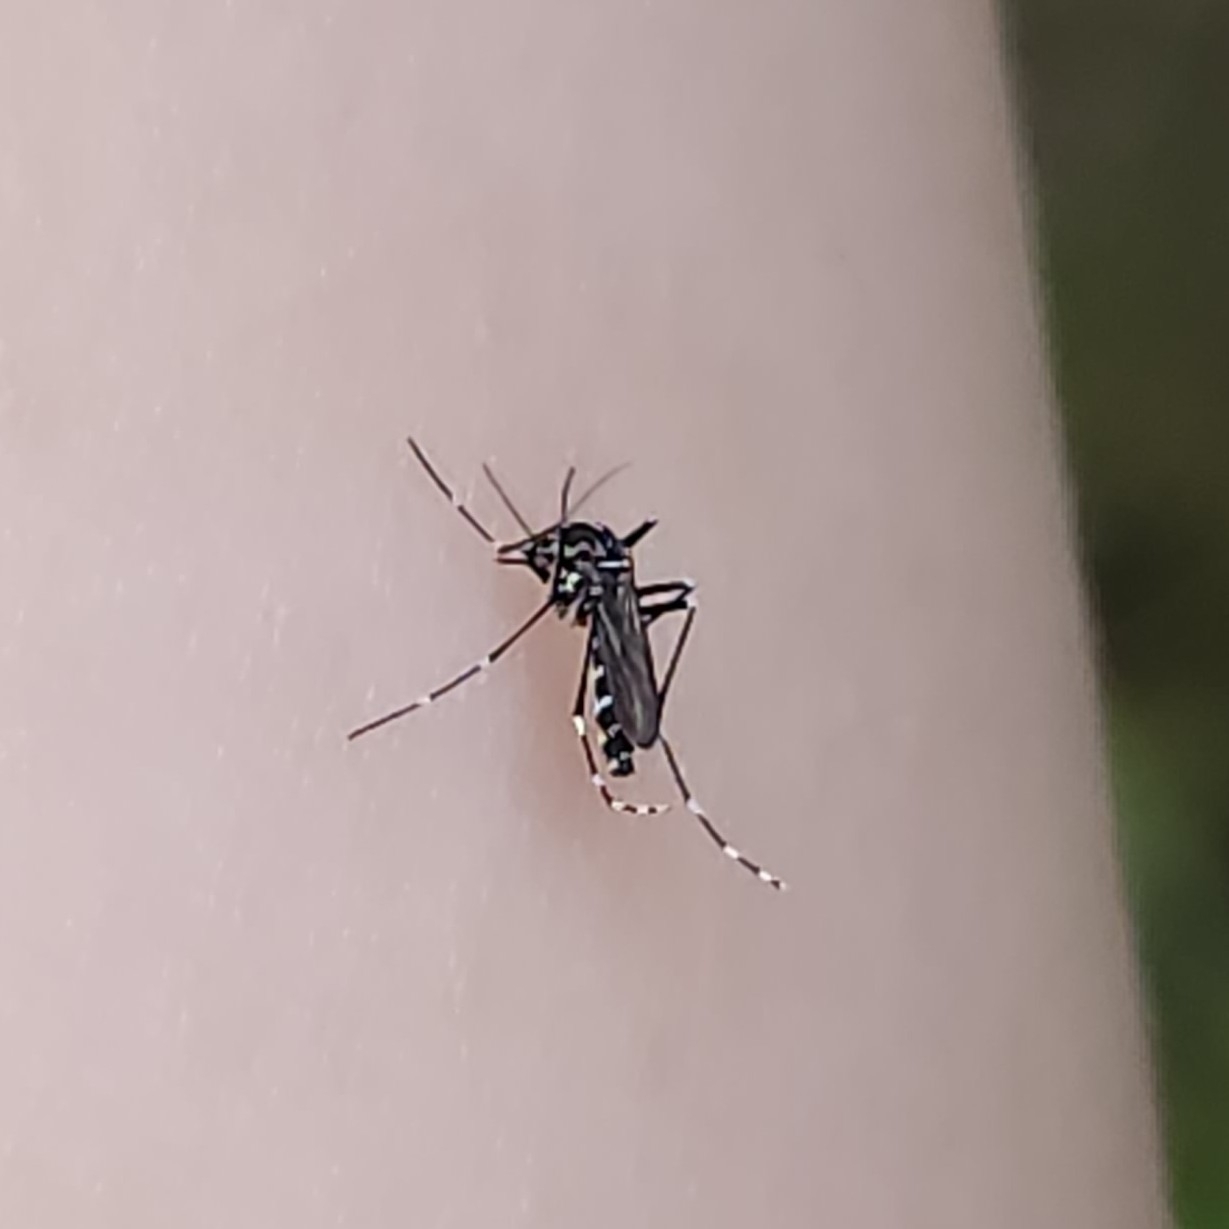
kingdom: Animalia
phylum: Arthropoda
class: Insecta
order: Diptera
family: Culicidae
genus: Aedes
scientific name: Aedes albopictus
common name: Tiger mosquito
